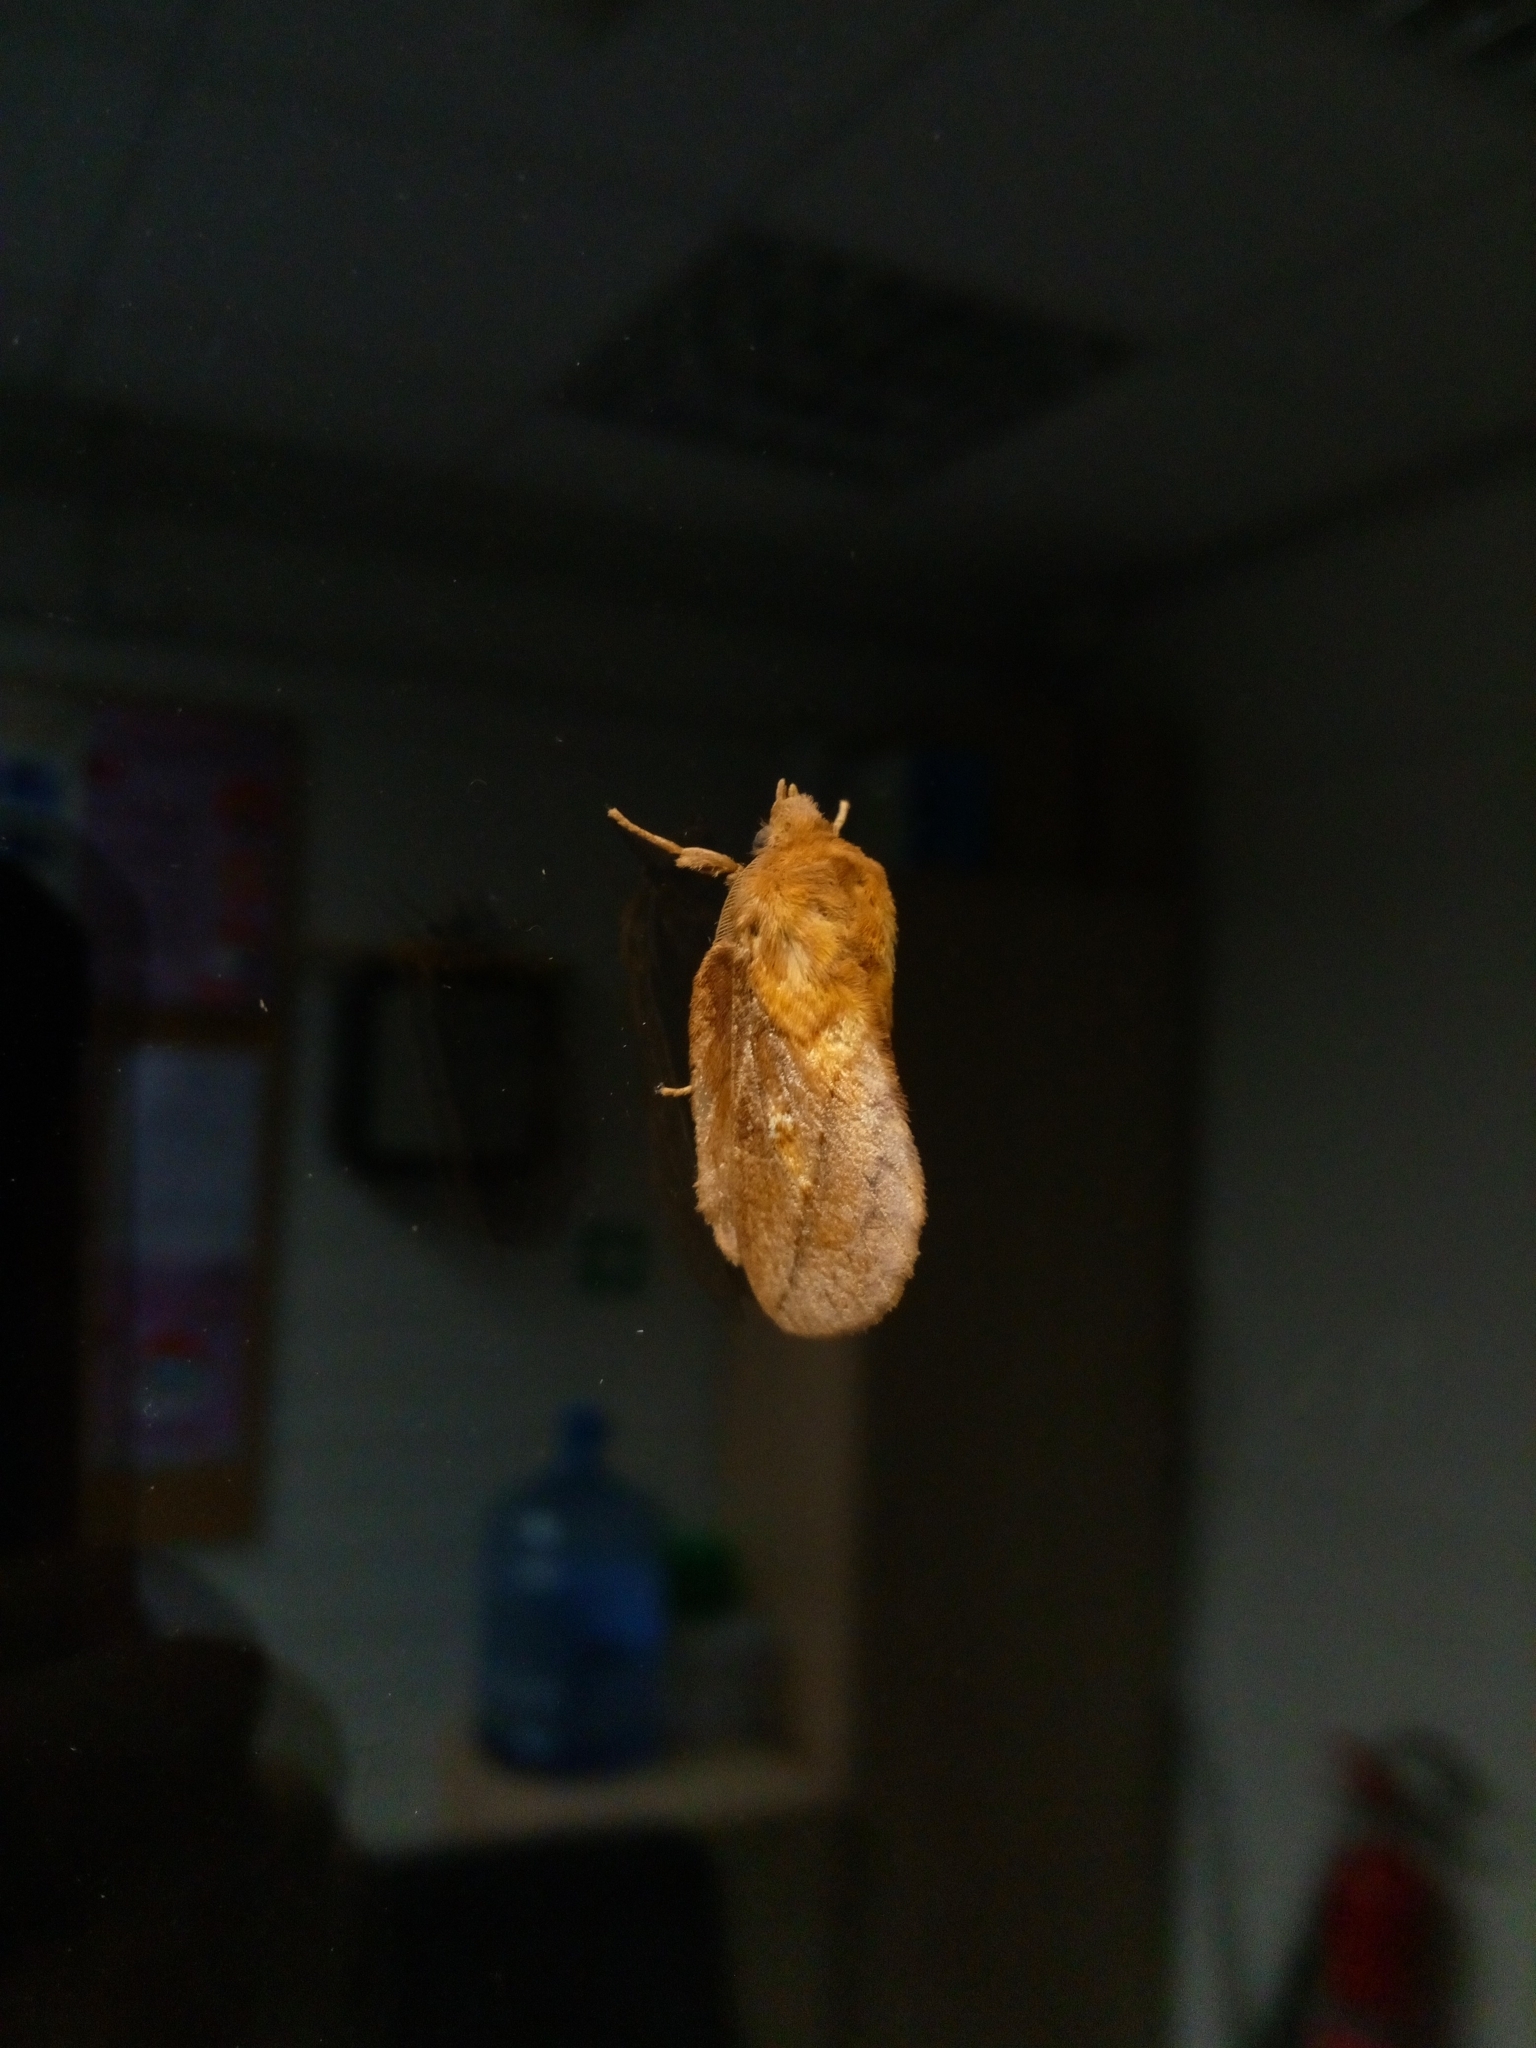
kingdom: Animalia
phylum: Arthropoda
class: Insecta
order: Lepidoptera
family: Lasiocampidae
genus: Euthrix
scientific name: Euthrix potatoria
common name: Drinker
